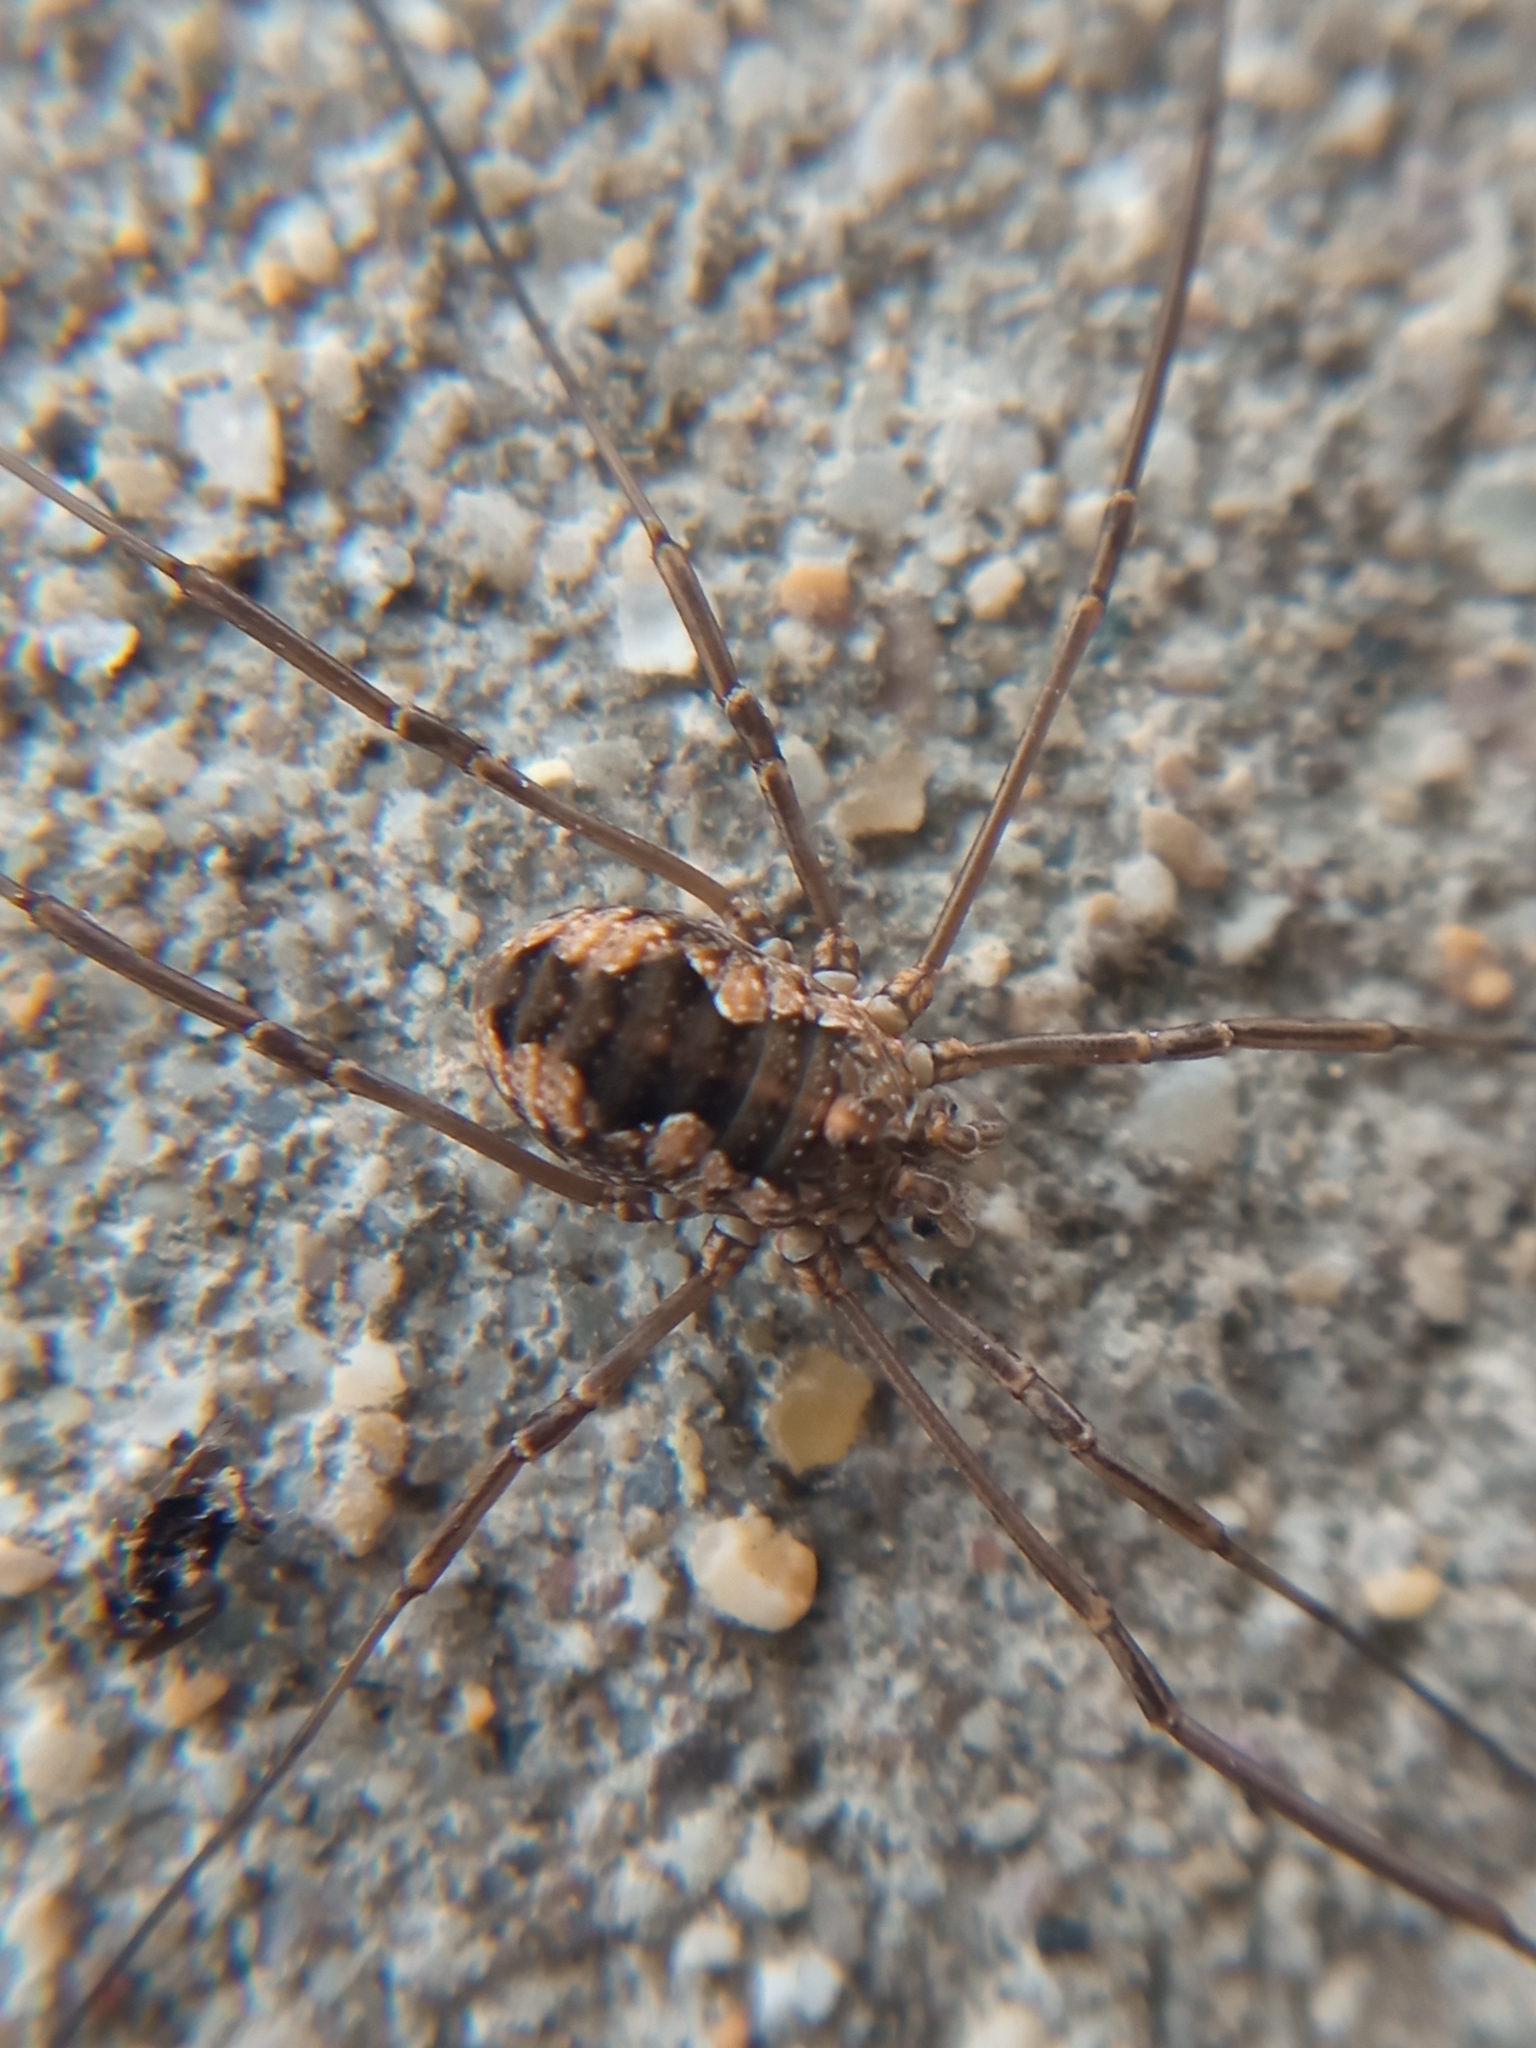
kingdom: Animalia
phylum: Arthropoda
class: Arachnida
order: Opiliones
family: Phalangiidae
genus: Phalangium
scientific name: Phalangium opilio
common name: Daddy longleg
